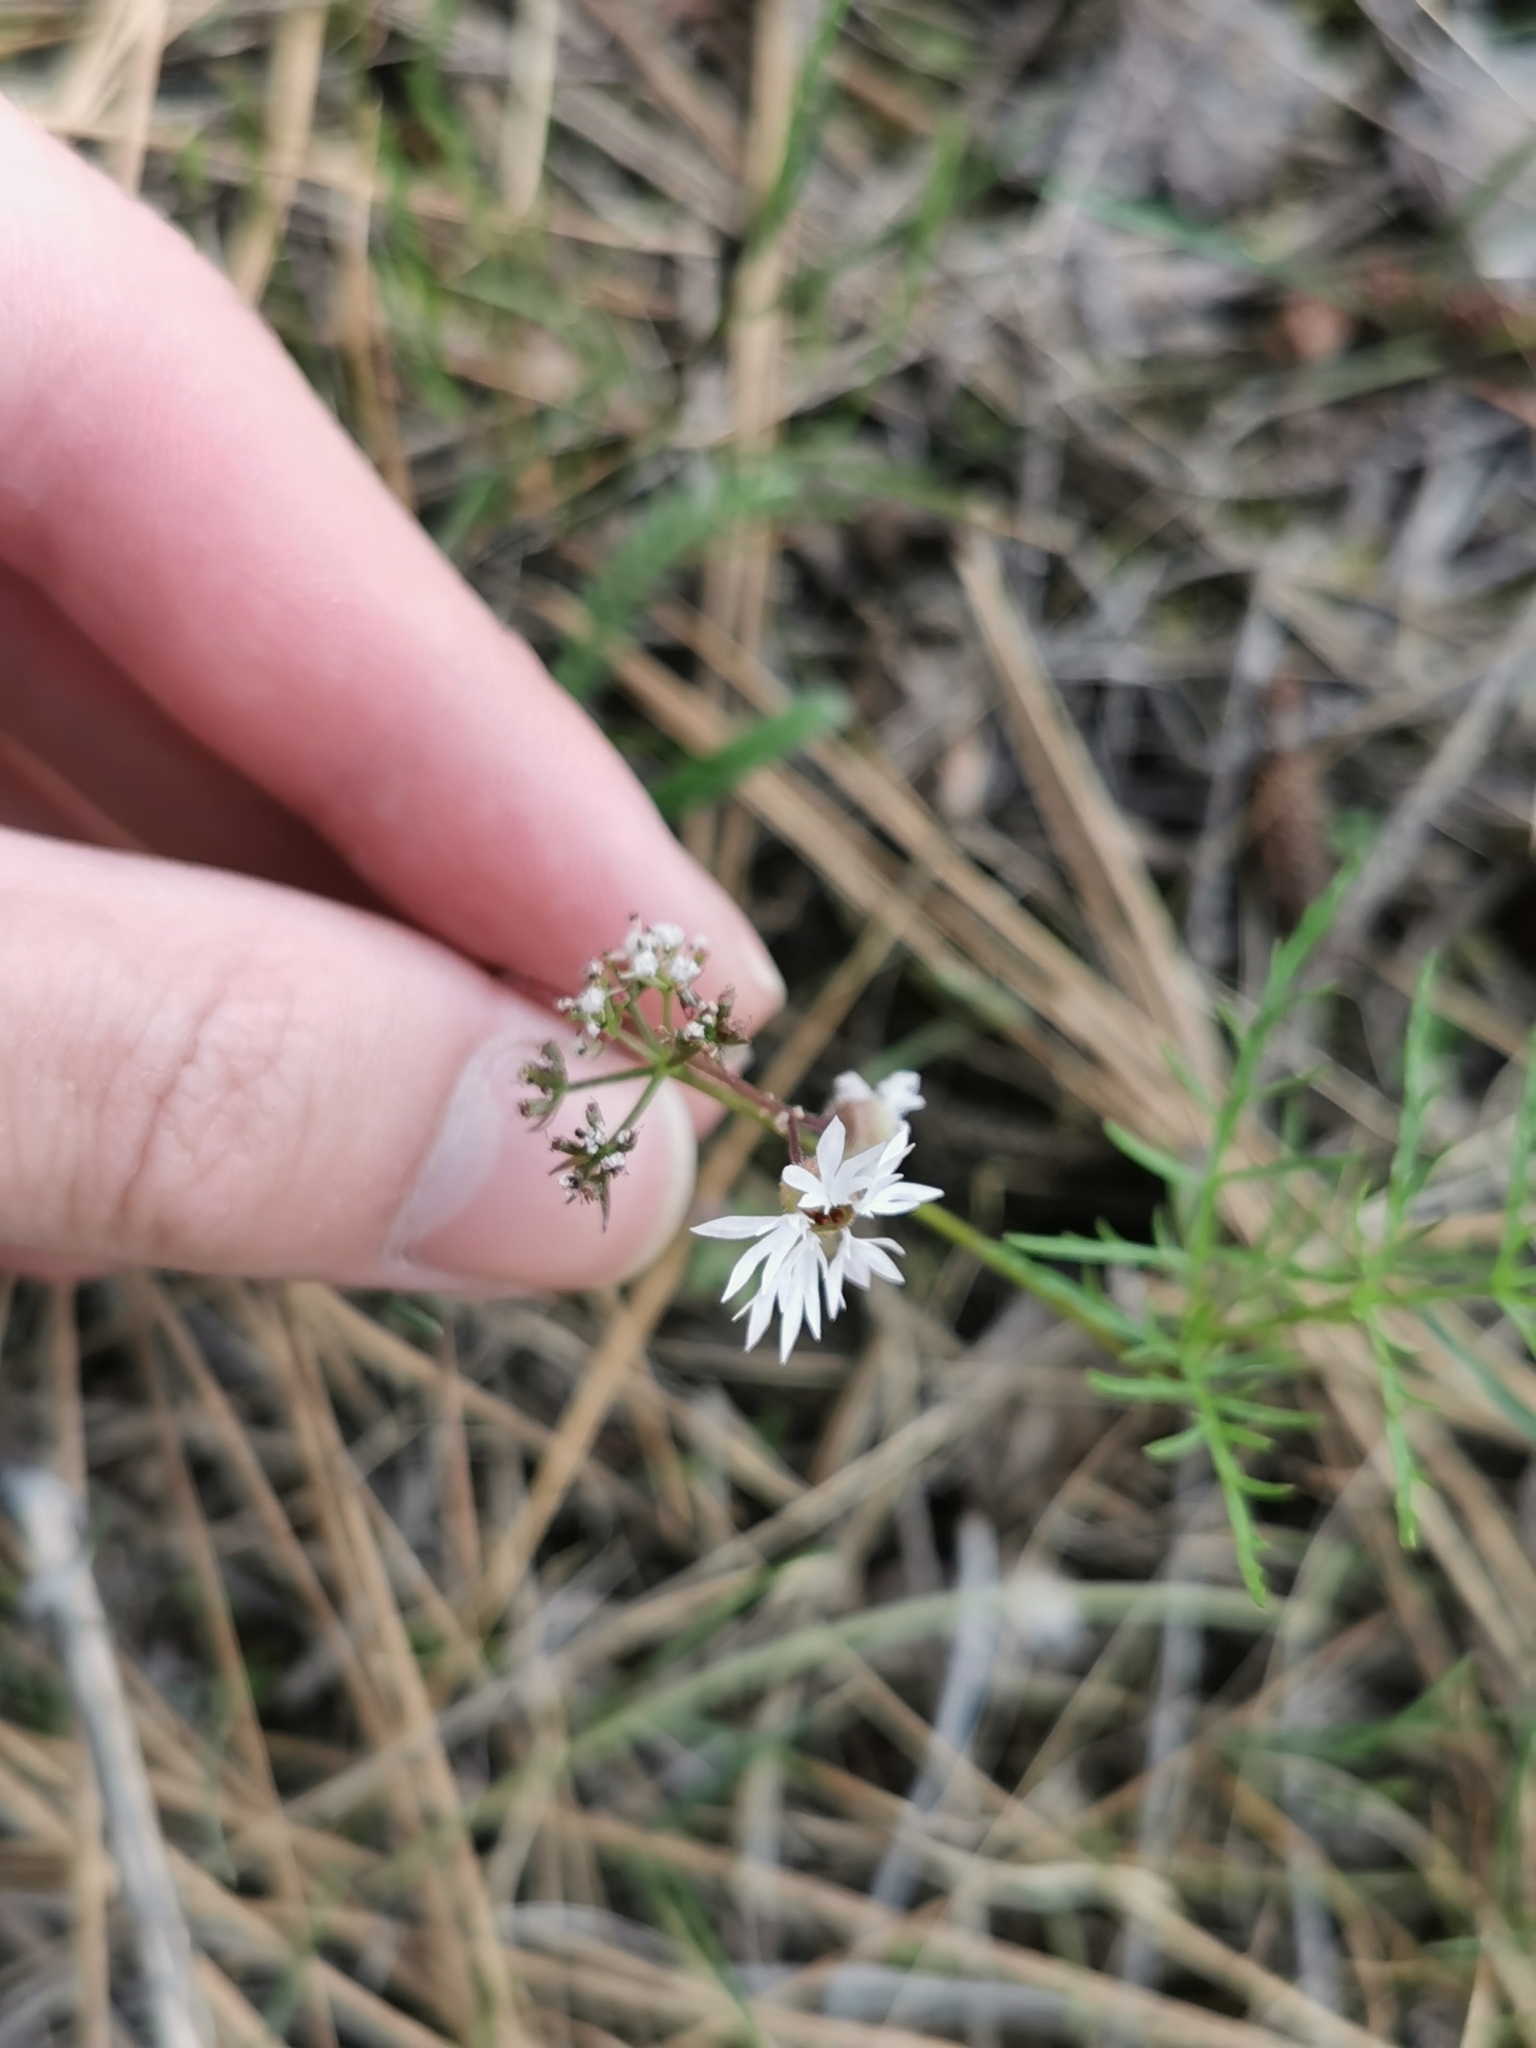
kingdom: Plantae
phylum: Tracheophyta
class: Magnoliopsida
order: Saxifragales
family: Saxifragaceae
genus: Lithophragma
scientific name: Lithophragma glabrum
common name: Bulbous prairie-star
